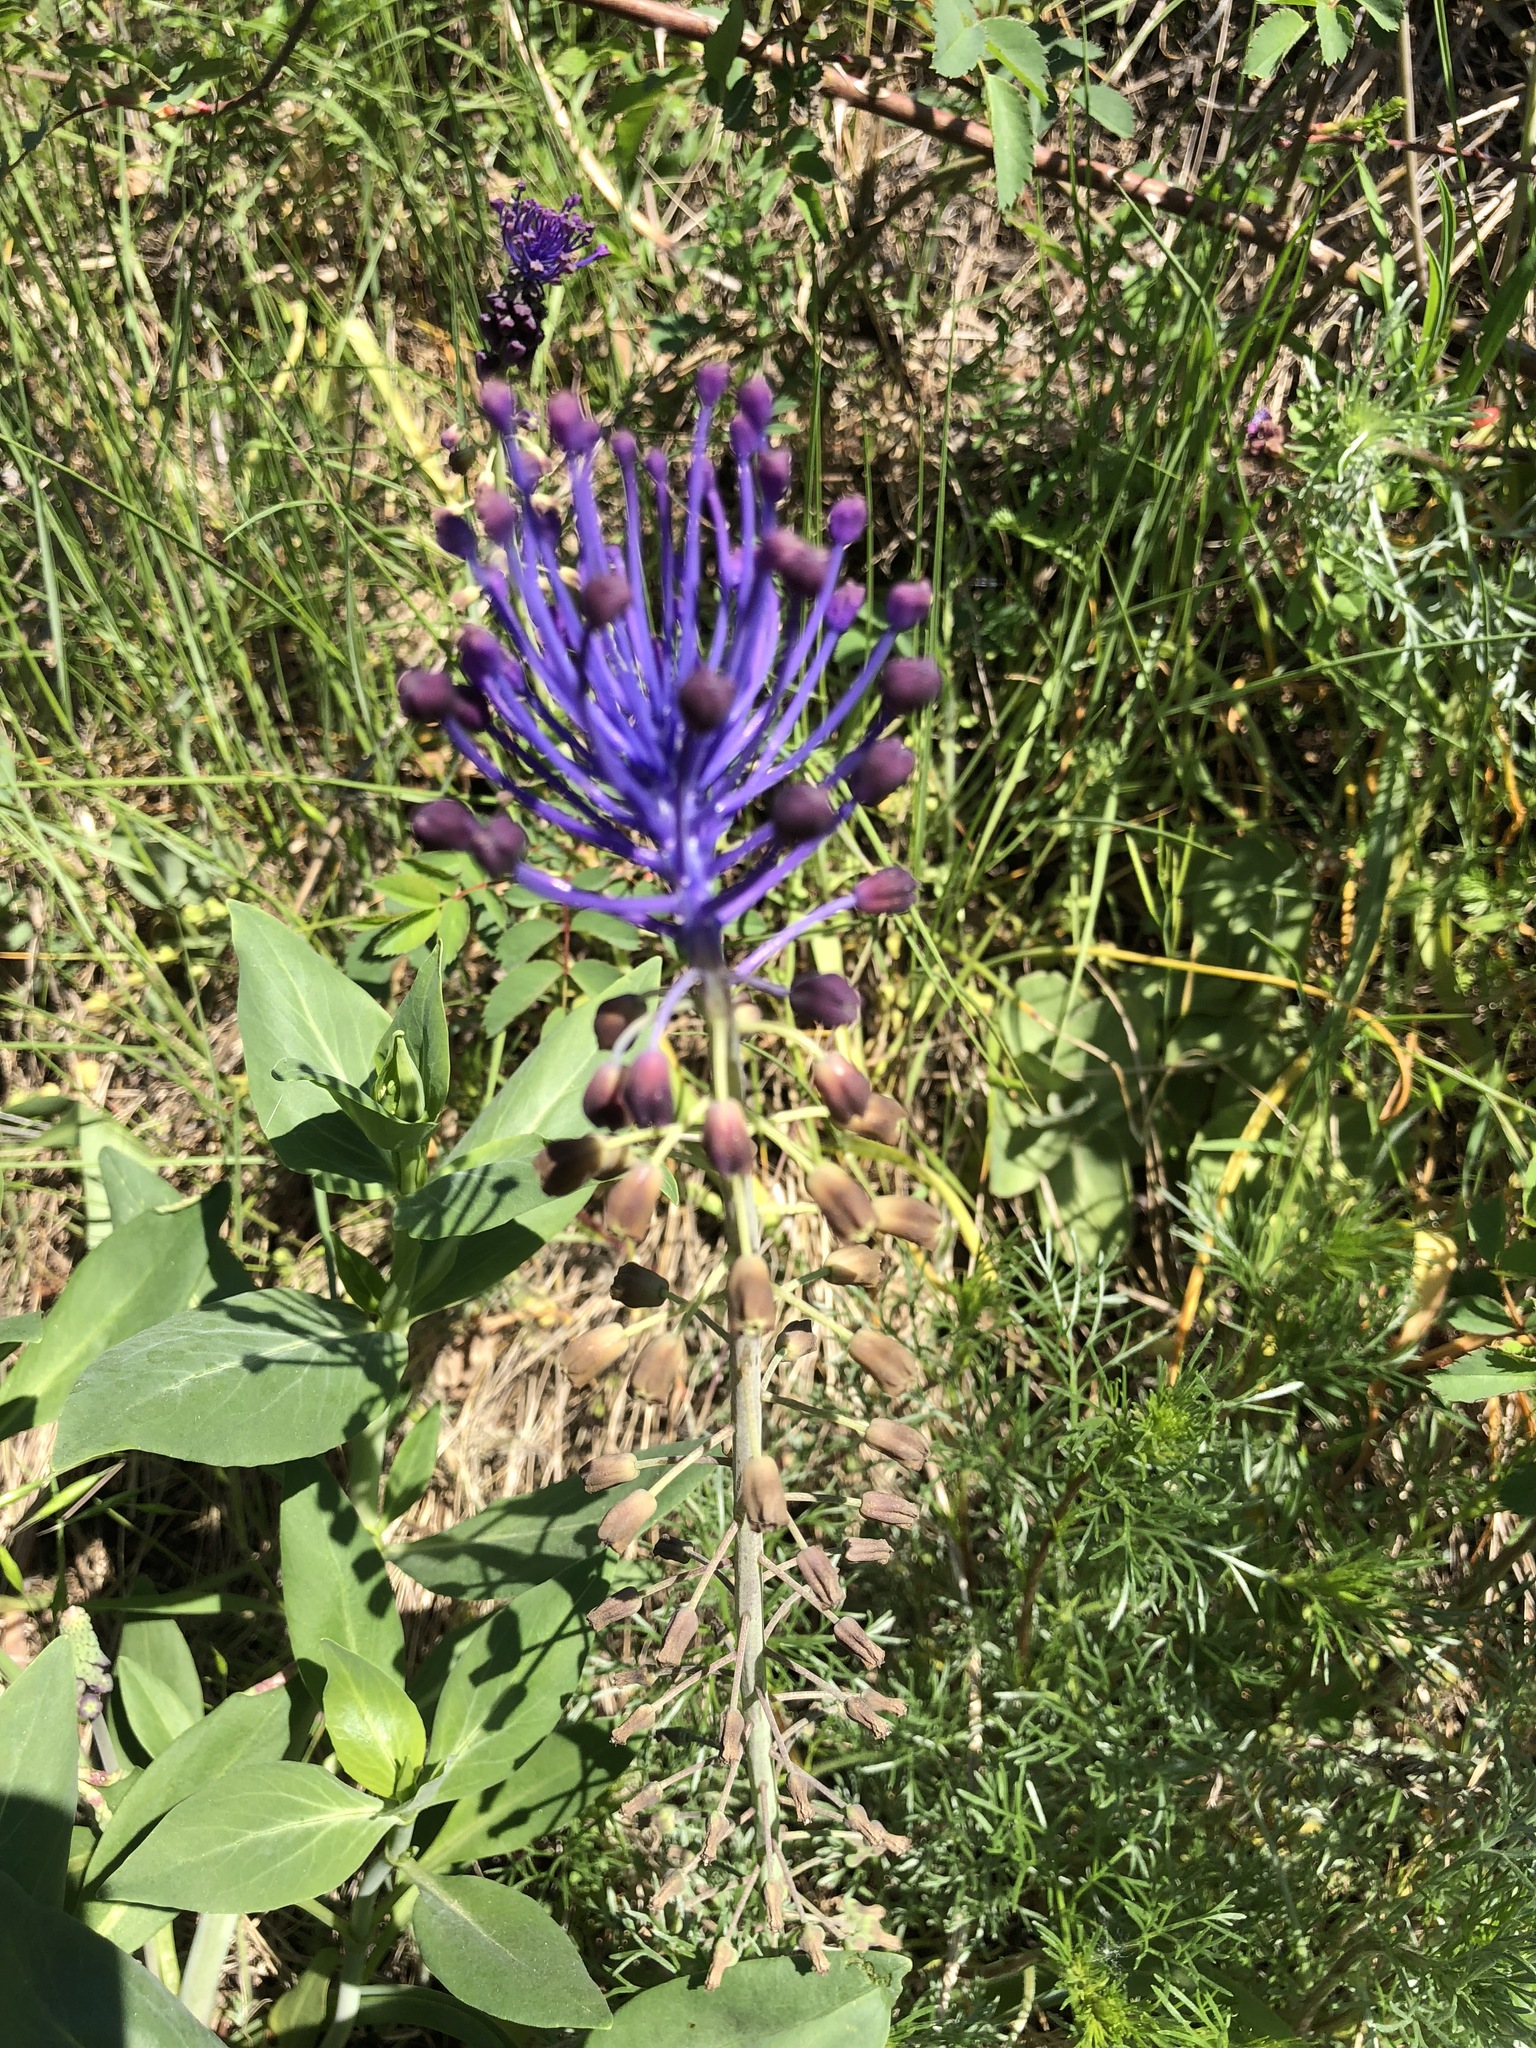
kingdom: Plantae
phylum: Tracheophyta
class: Liliopsida
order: Asparagales
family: Asparagaceae
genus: Muscari
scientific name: Muscari comosum
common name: Tassel hyacinth
